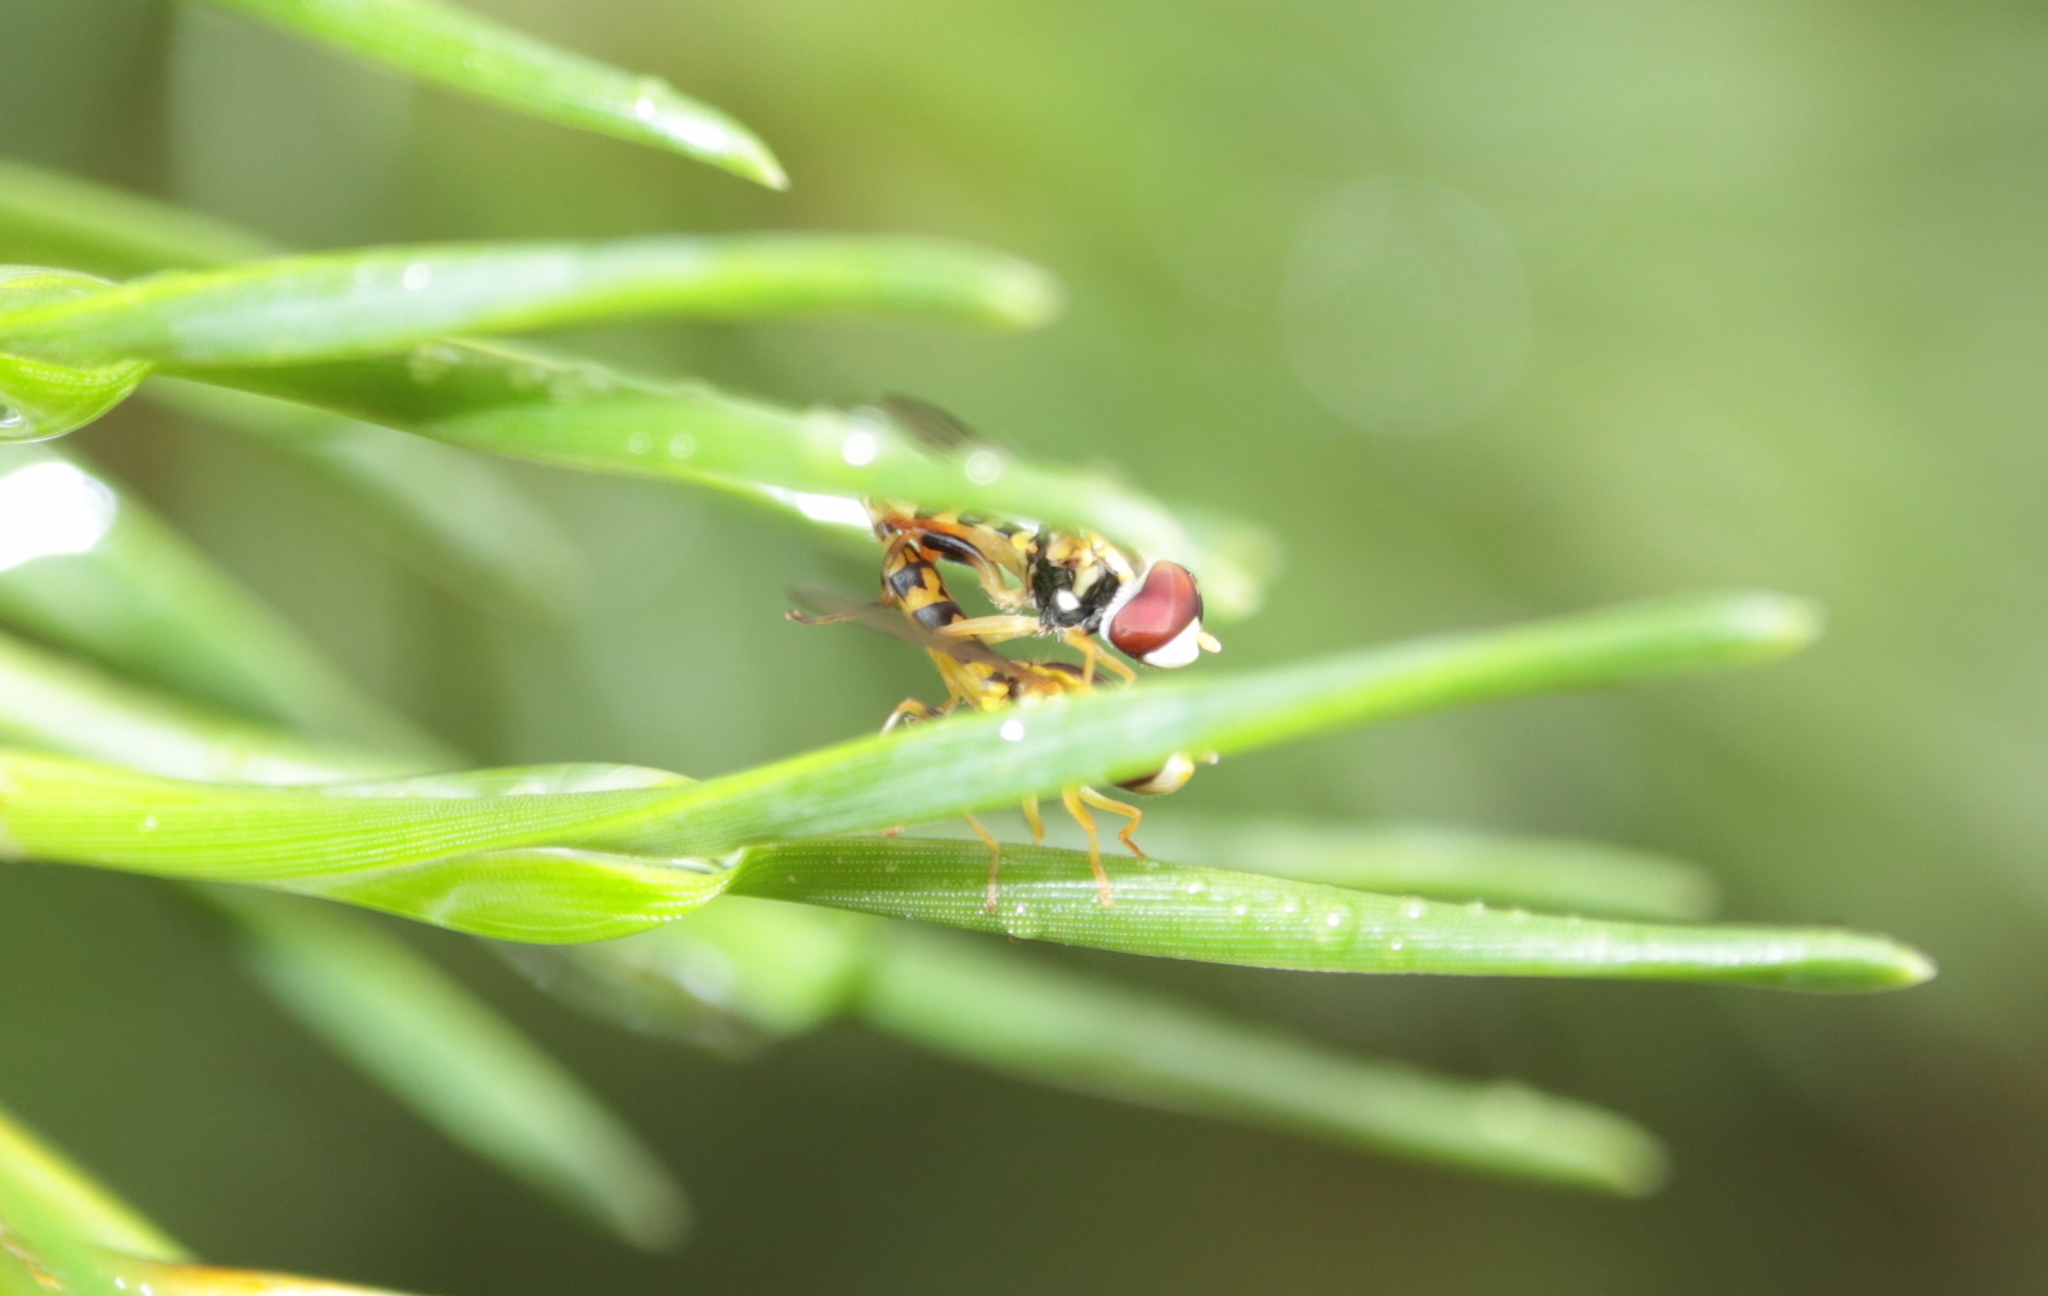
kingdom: Animalia
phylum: Arthropoda
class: Insecta
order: Diptera
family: Syrphidae
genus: Toxomerus
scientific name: Toxomerus geminatus
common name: Eastern calligrapher
